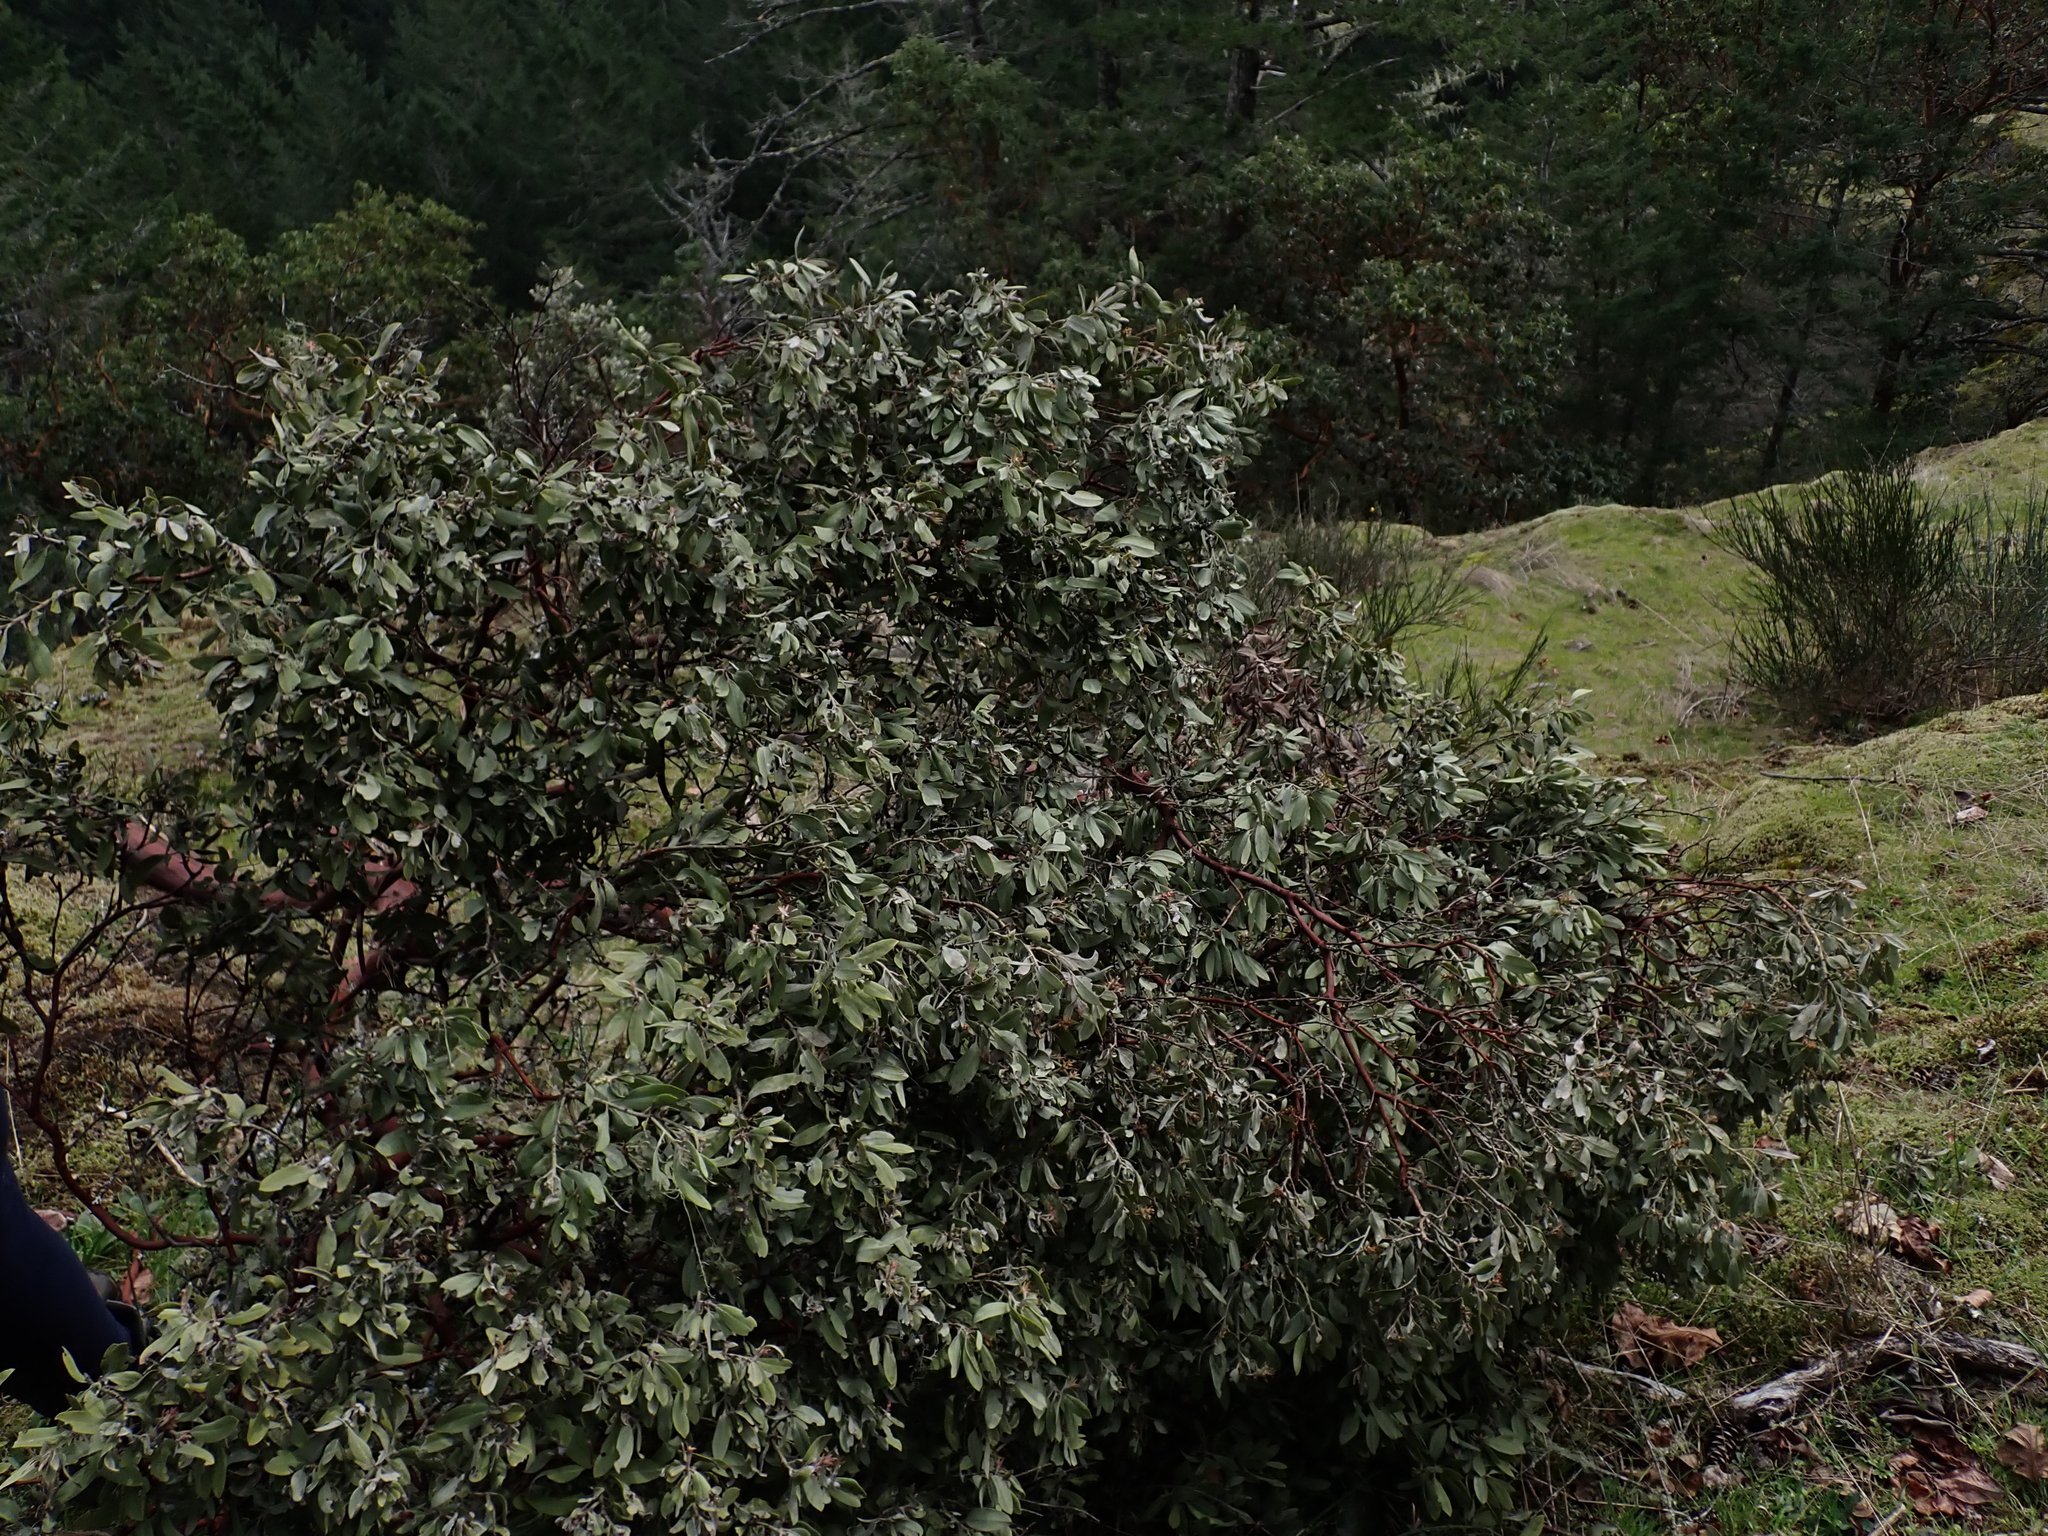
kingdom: Plantae
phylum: Tracheophyta
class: Magnoliopsida
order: Ericales
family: Ericaceae
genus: Arctostaphylos
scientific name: Arctostaphylos columbiana
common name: Bristly bearberry
